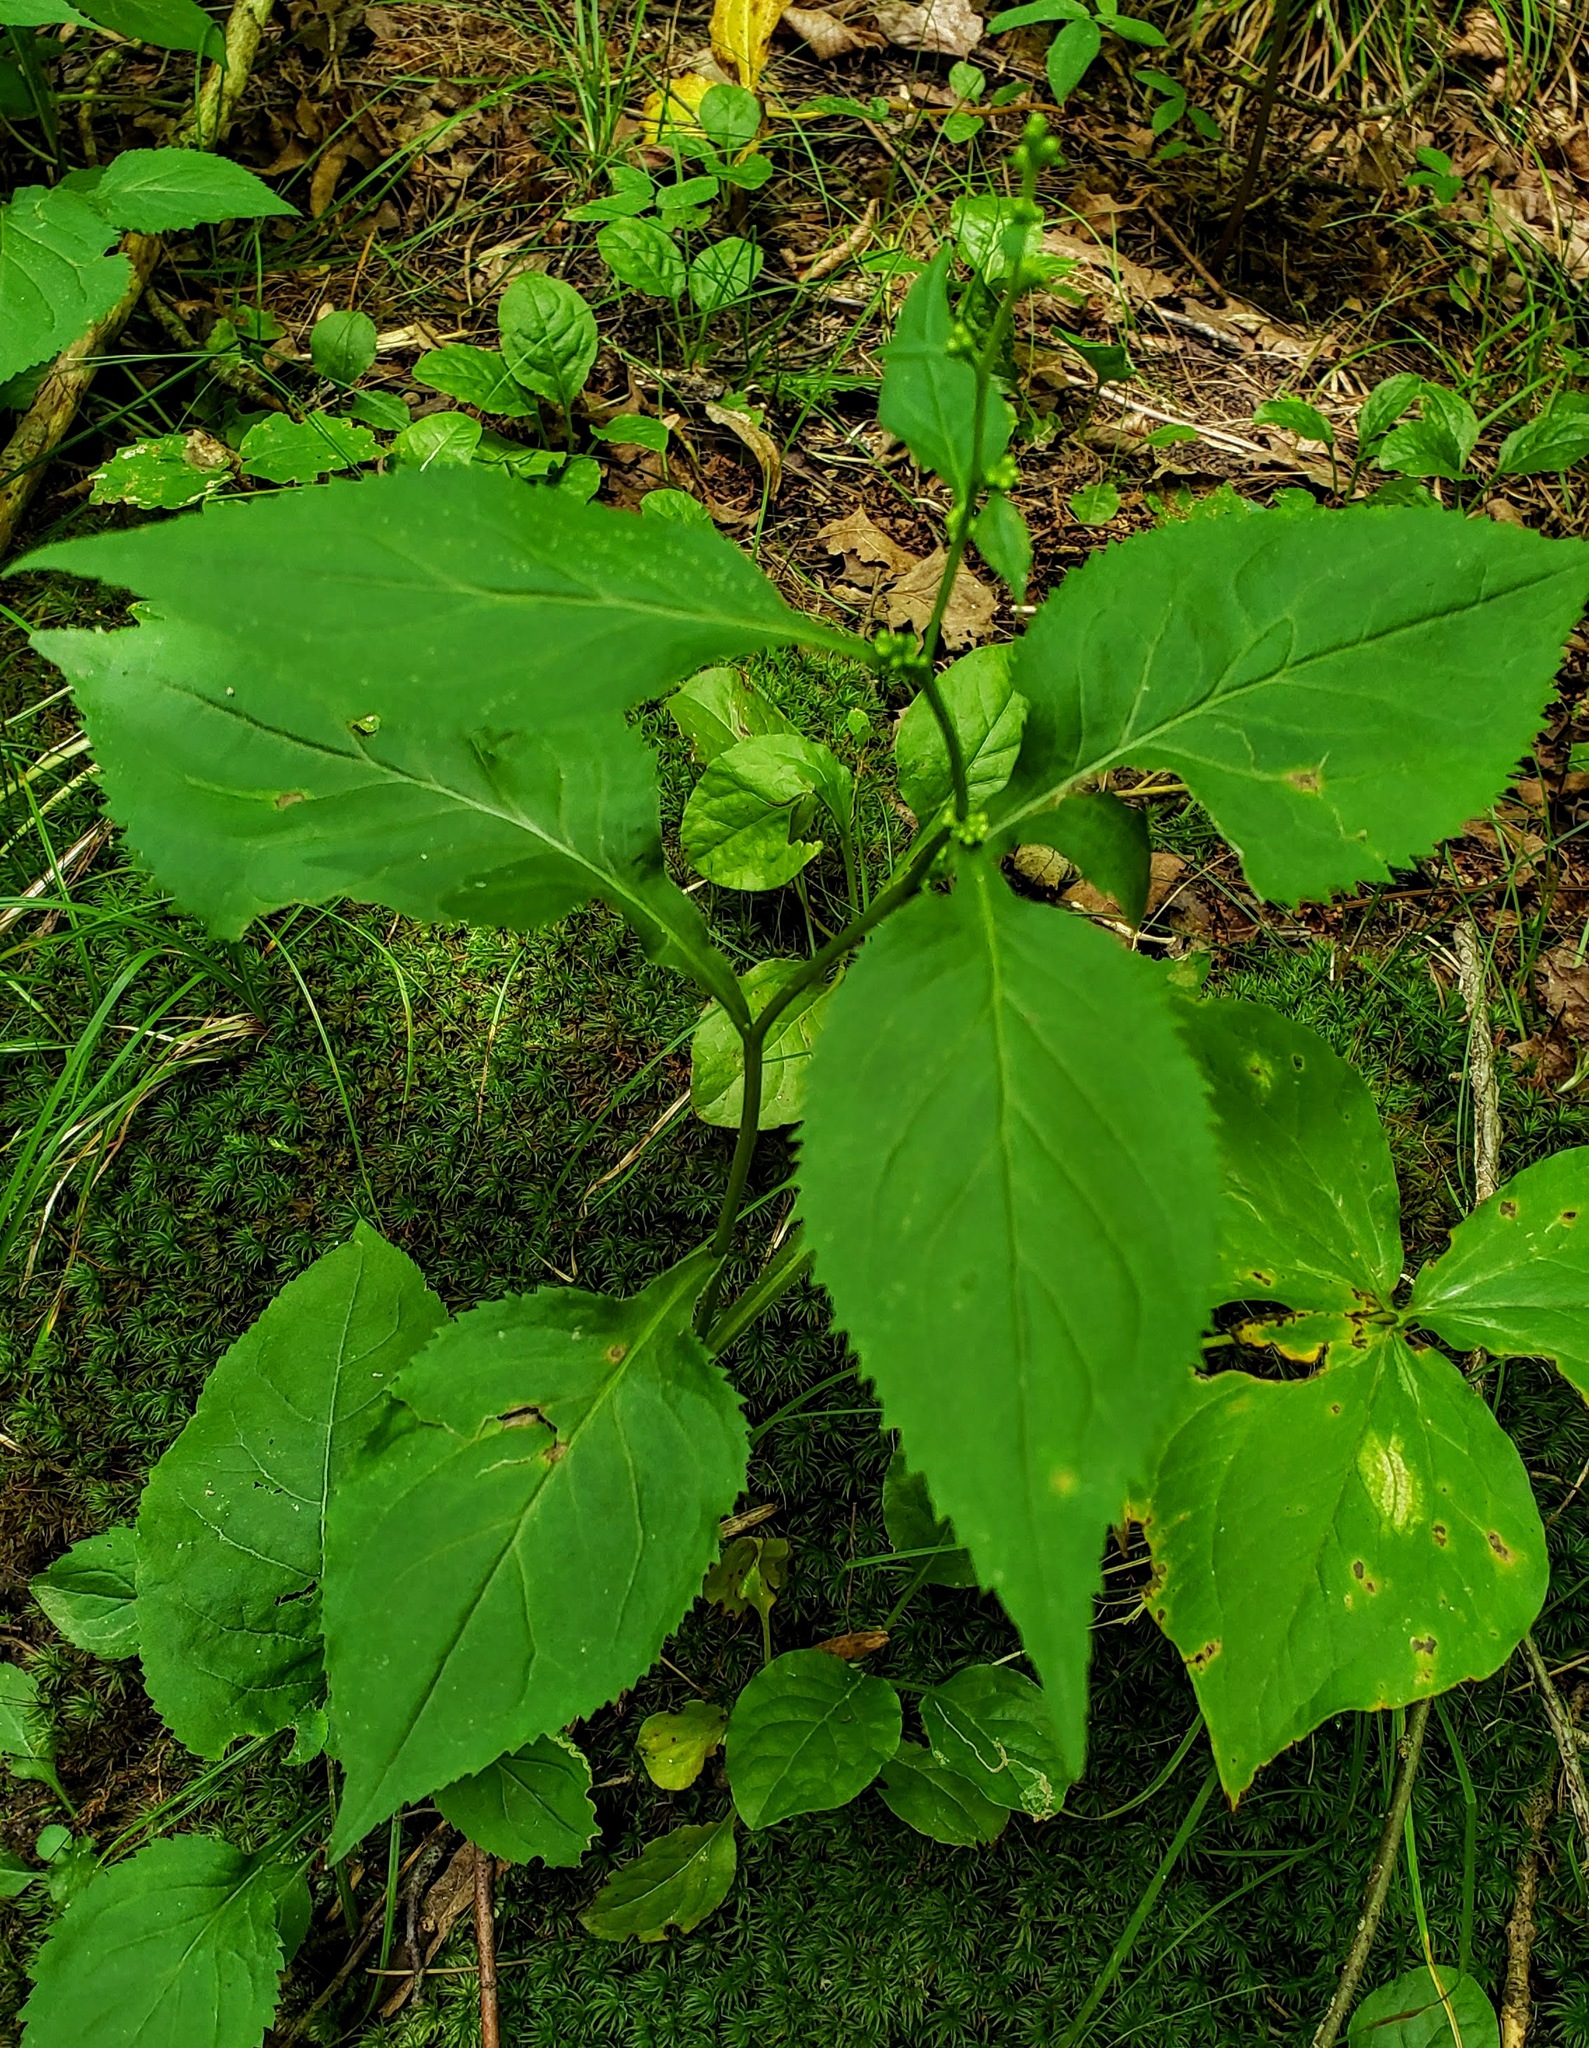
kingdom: Plantae
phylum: Tracheophyta
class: Magnoliopsida
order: Asterales
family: Asteraceae
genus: Solidago
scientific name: Solidago flexicaulis
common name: Zig-zag goldenrod
